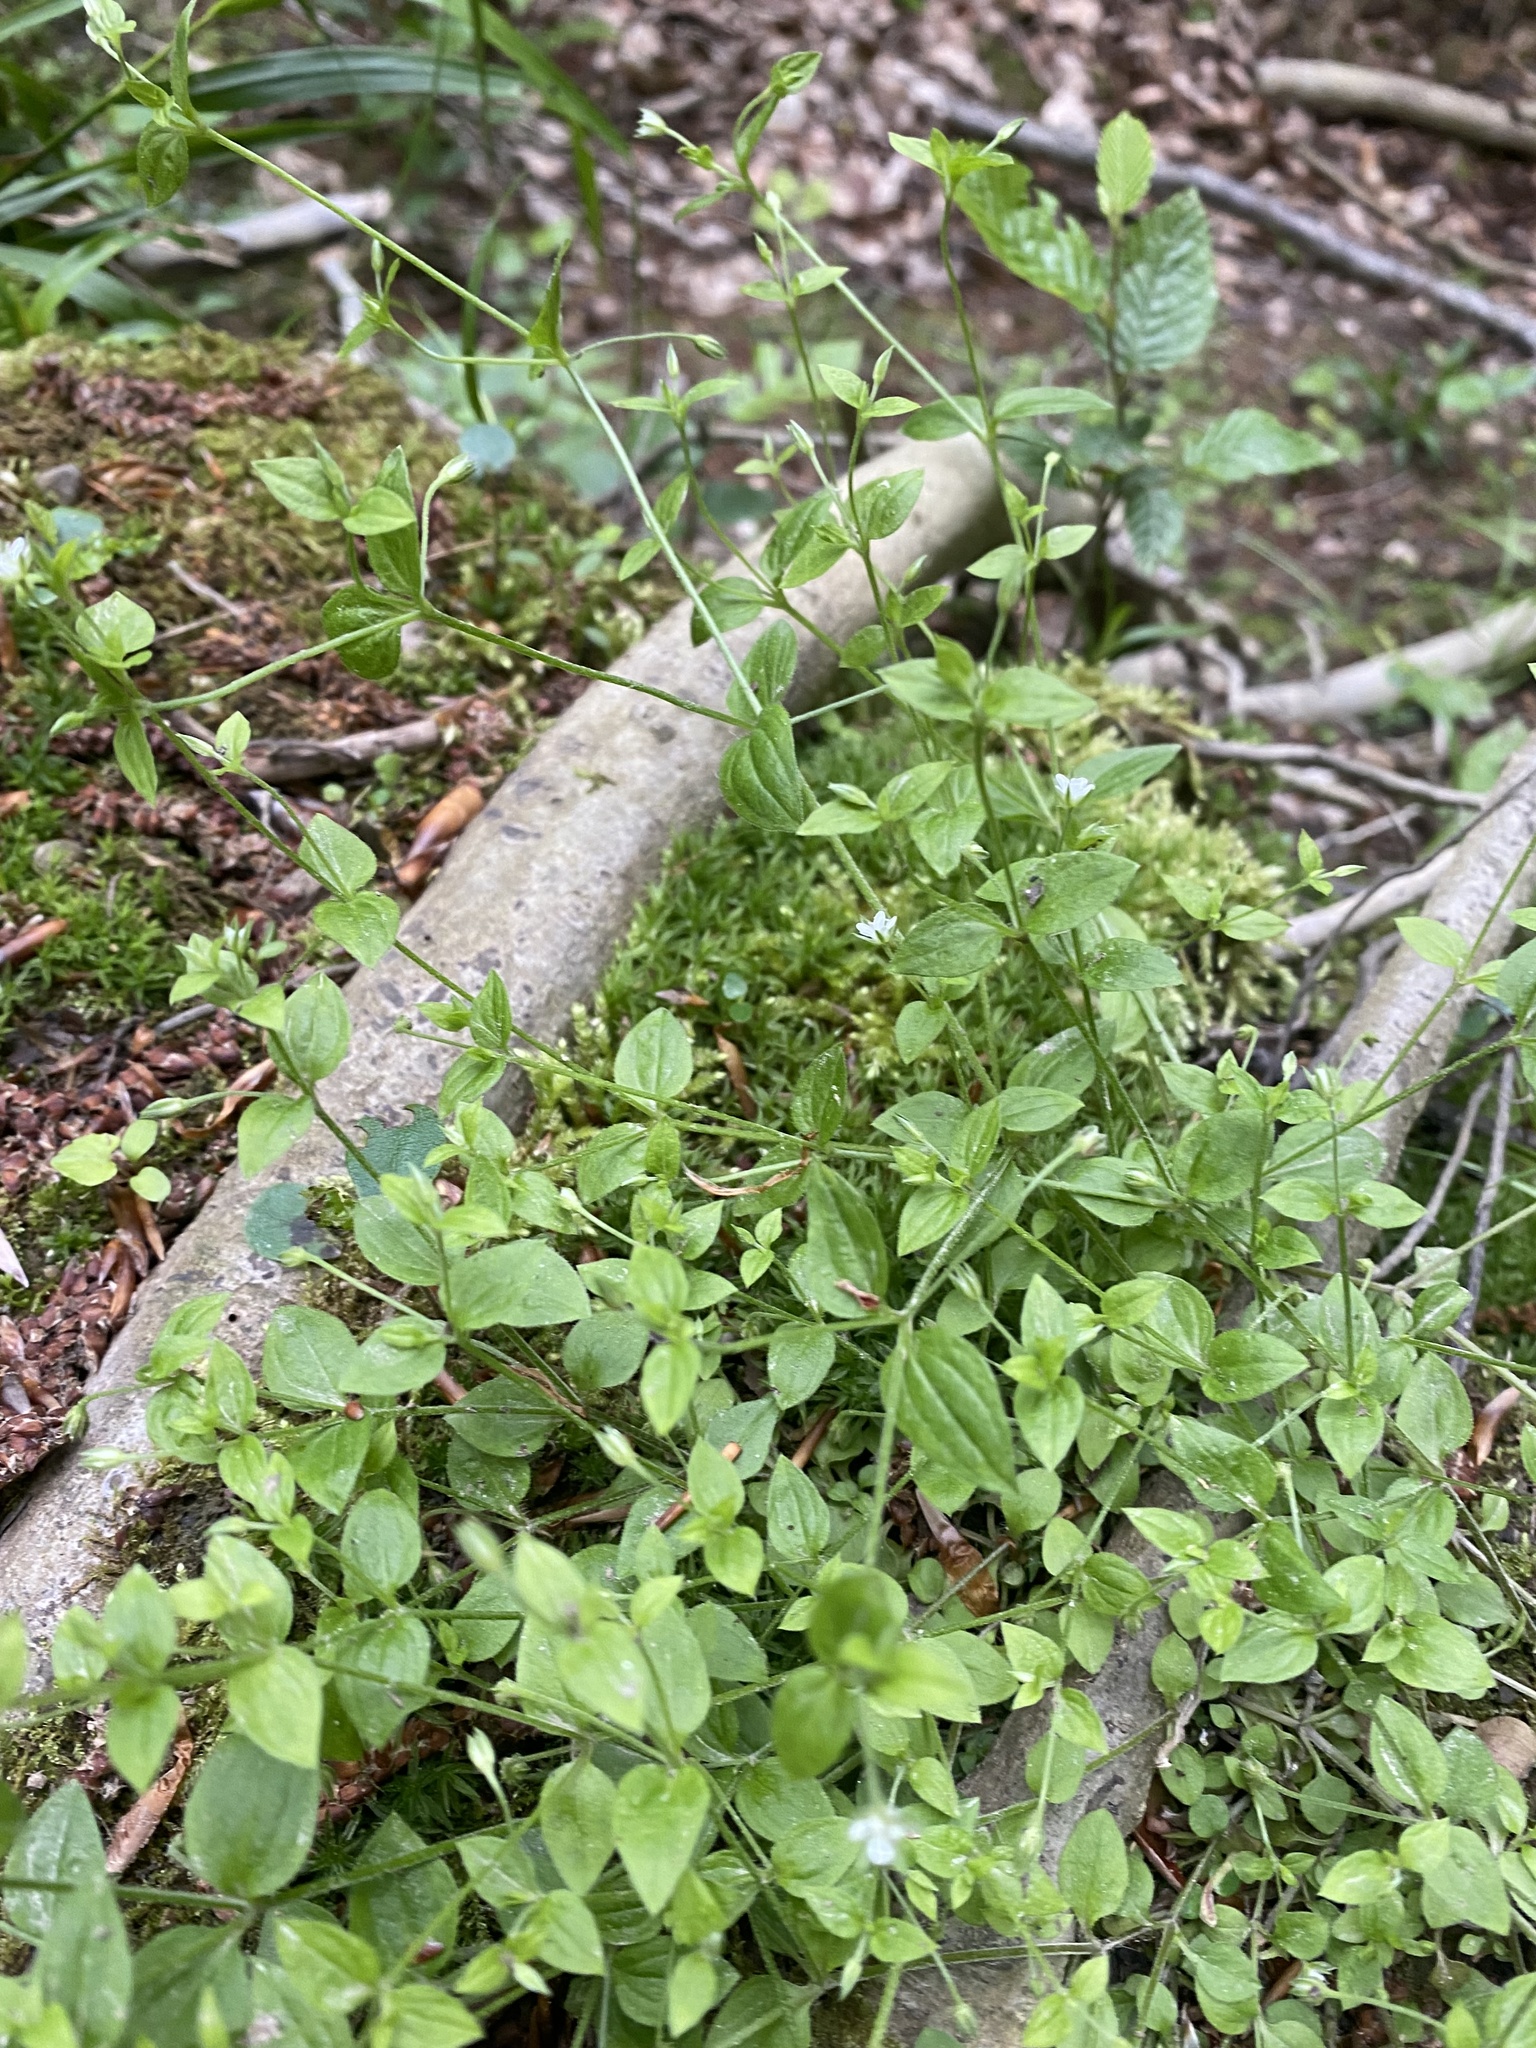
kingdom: Plantae
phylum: Tracheophyta
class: Magnoliopsida
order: Caryophyllales
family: Caryophyllaceae
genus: Moehringia
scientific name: Moehringia trinervia
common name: Three-nerved sandwort
